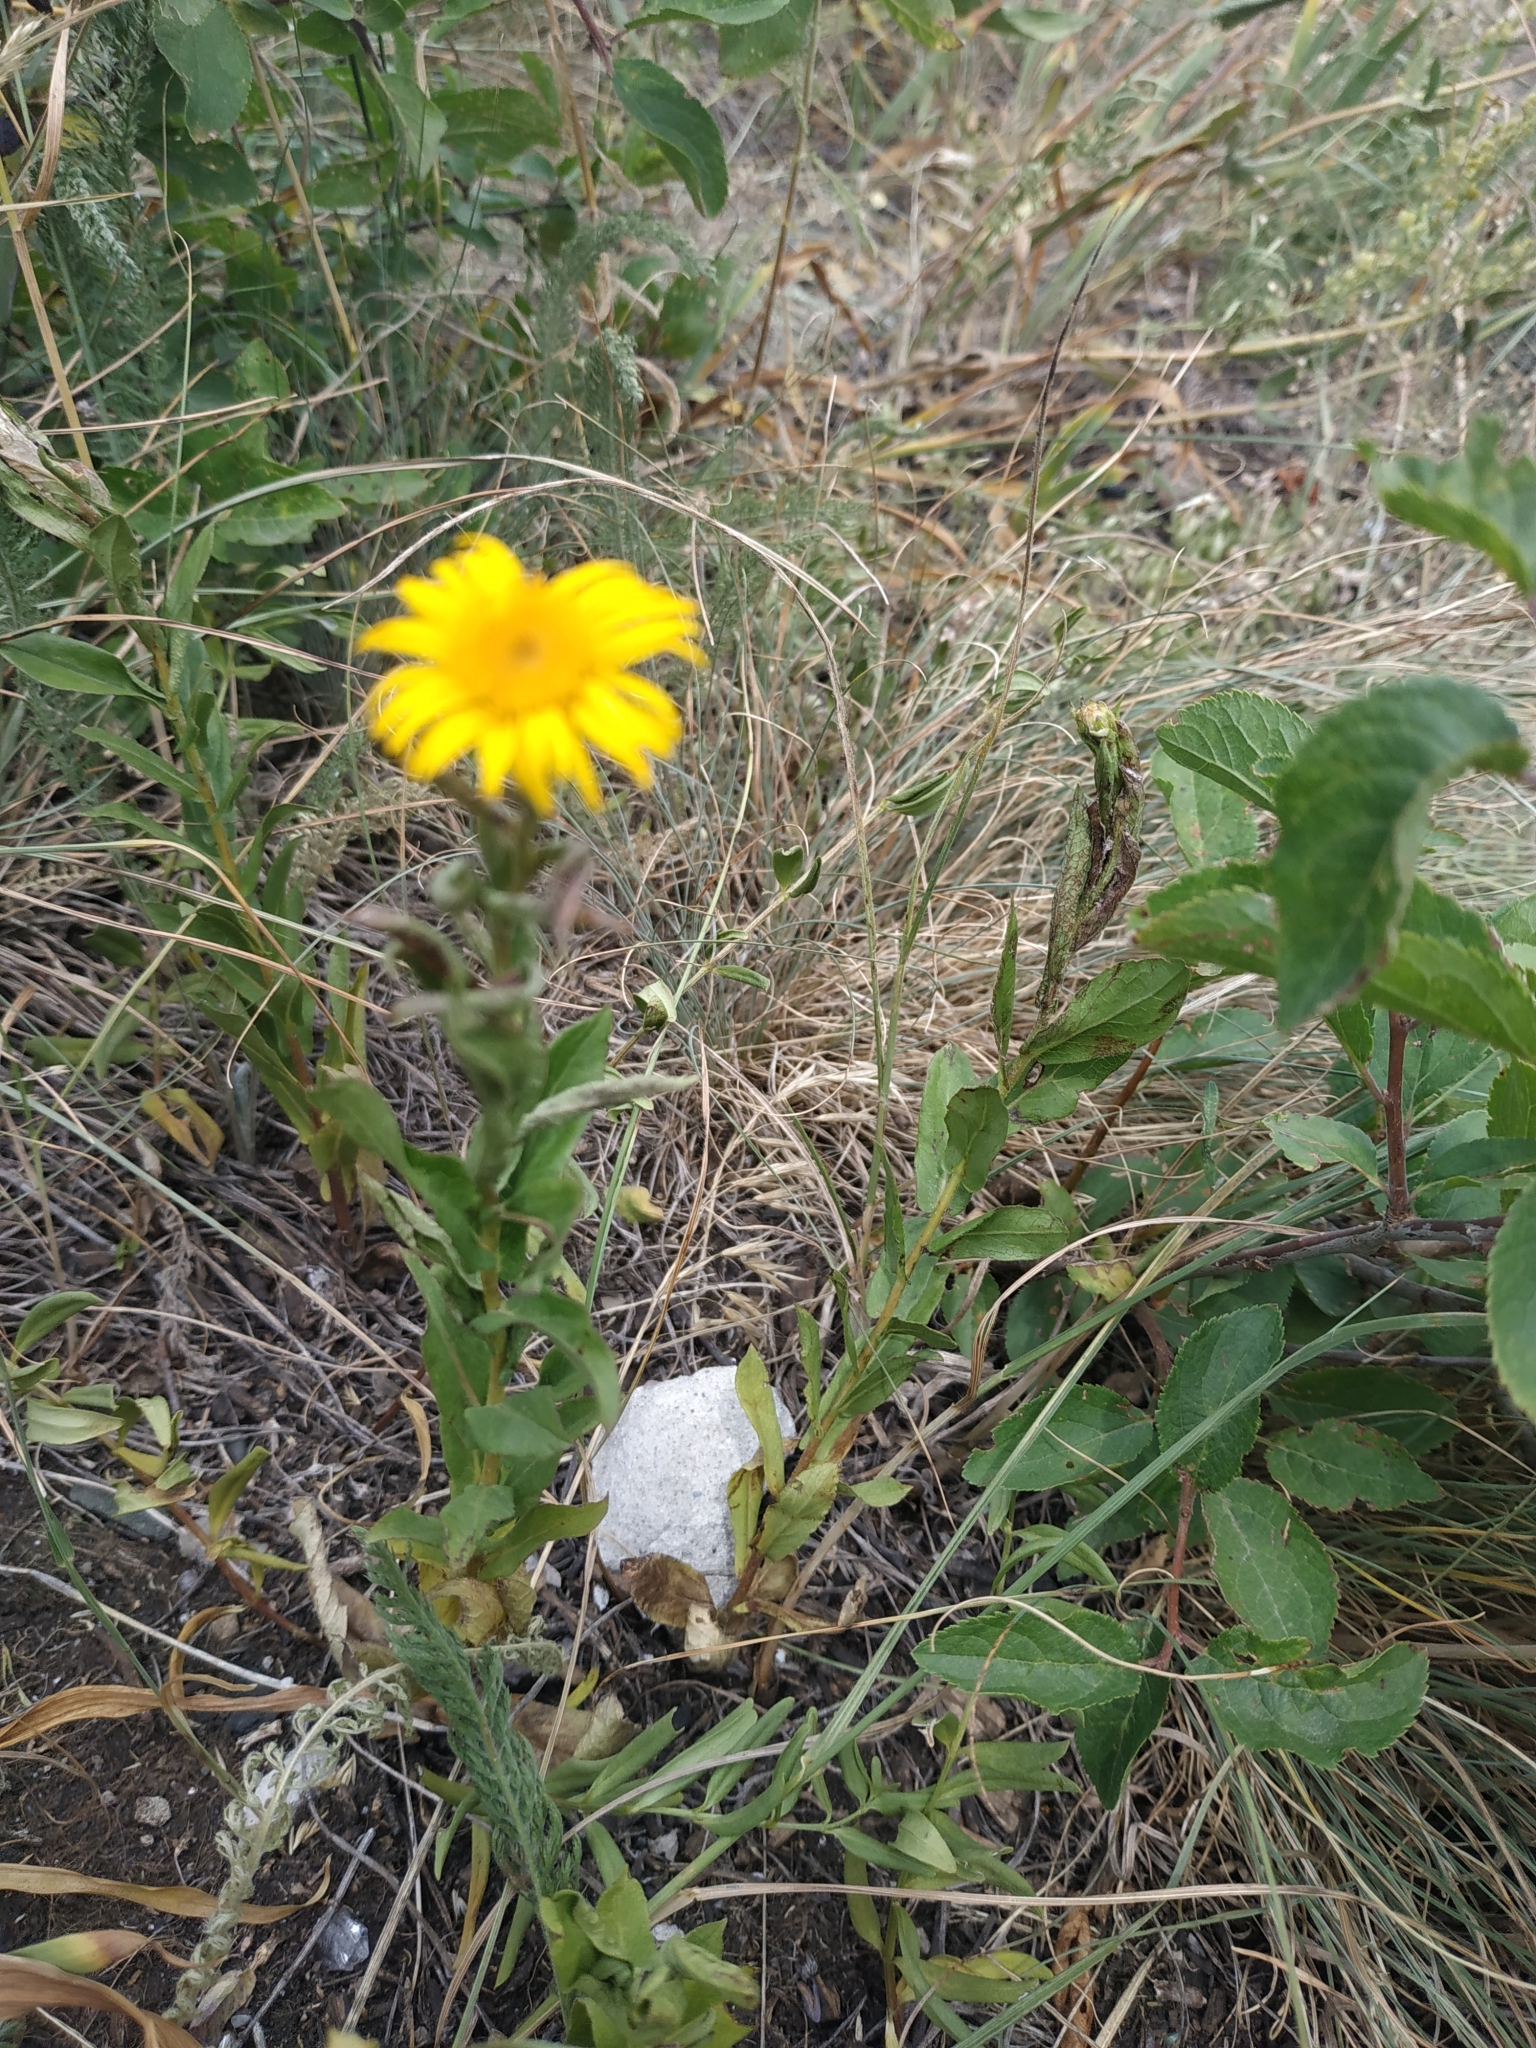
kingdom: Plantae
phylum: Tracheophyta
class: Magnoliopsida
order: Asterales
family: Asteraceae
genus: Pentanema
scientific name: Pentanema asperum
